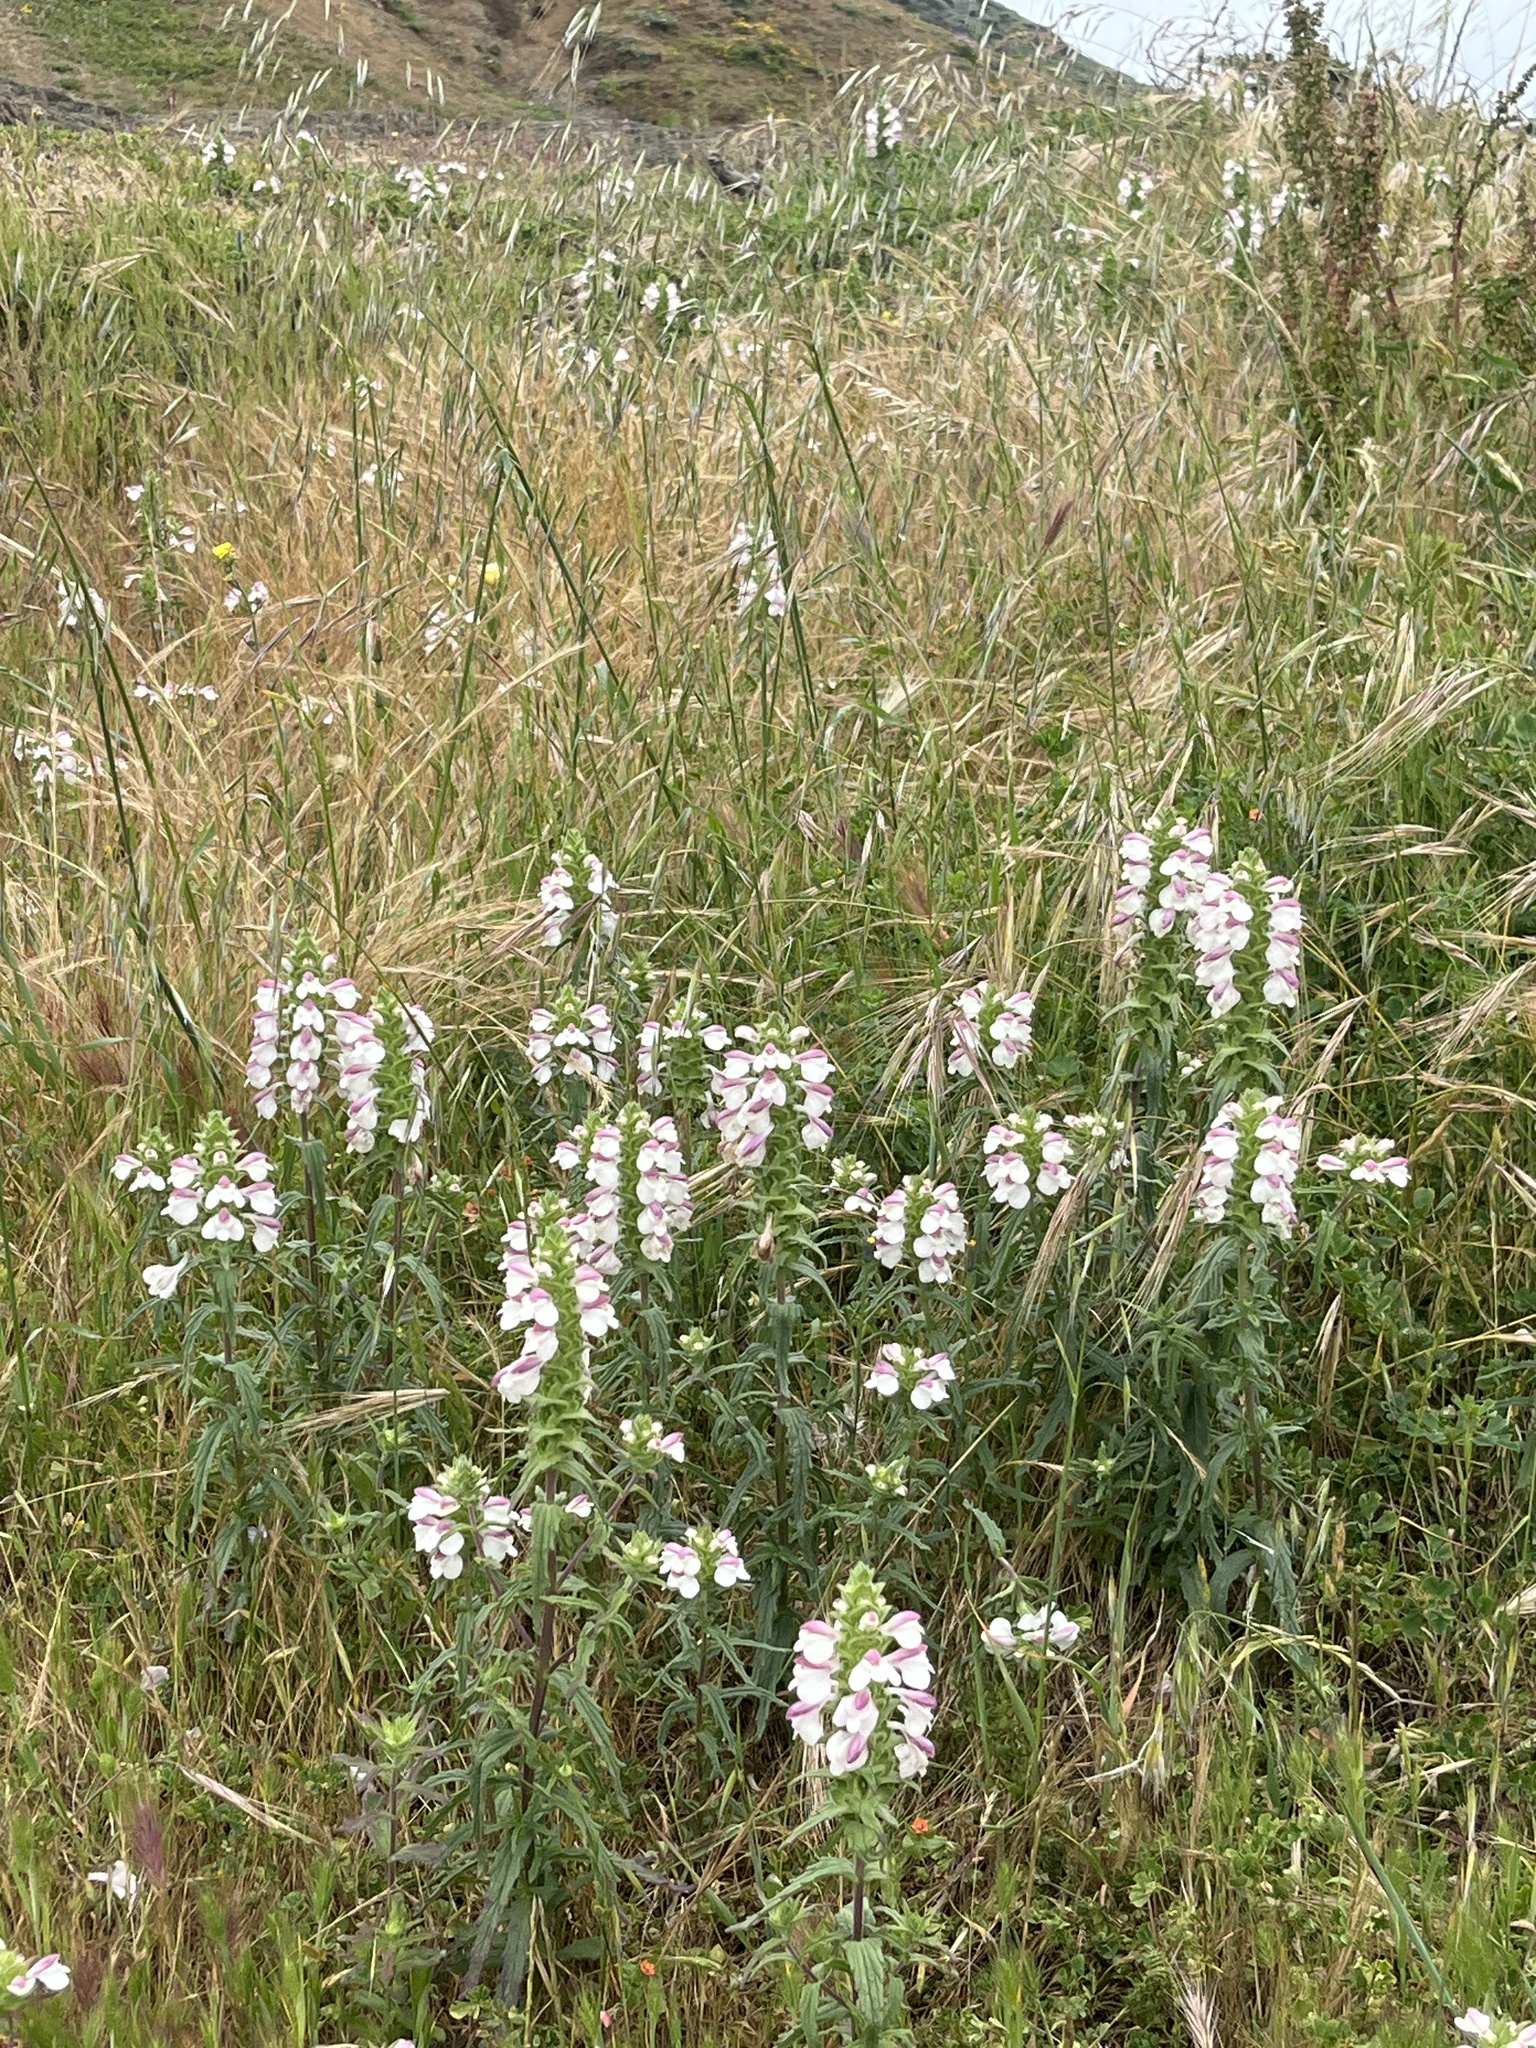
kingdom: Plantae
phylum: Tracheophyta
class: Magnoliopsida
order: Lamiales
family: Orobanchaceae
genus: Bellardia
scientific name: Bellardia trixago
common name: Mediterranean lineseed
